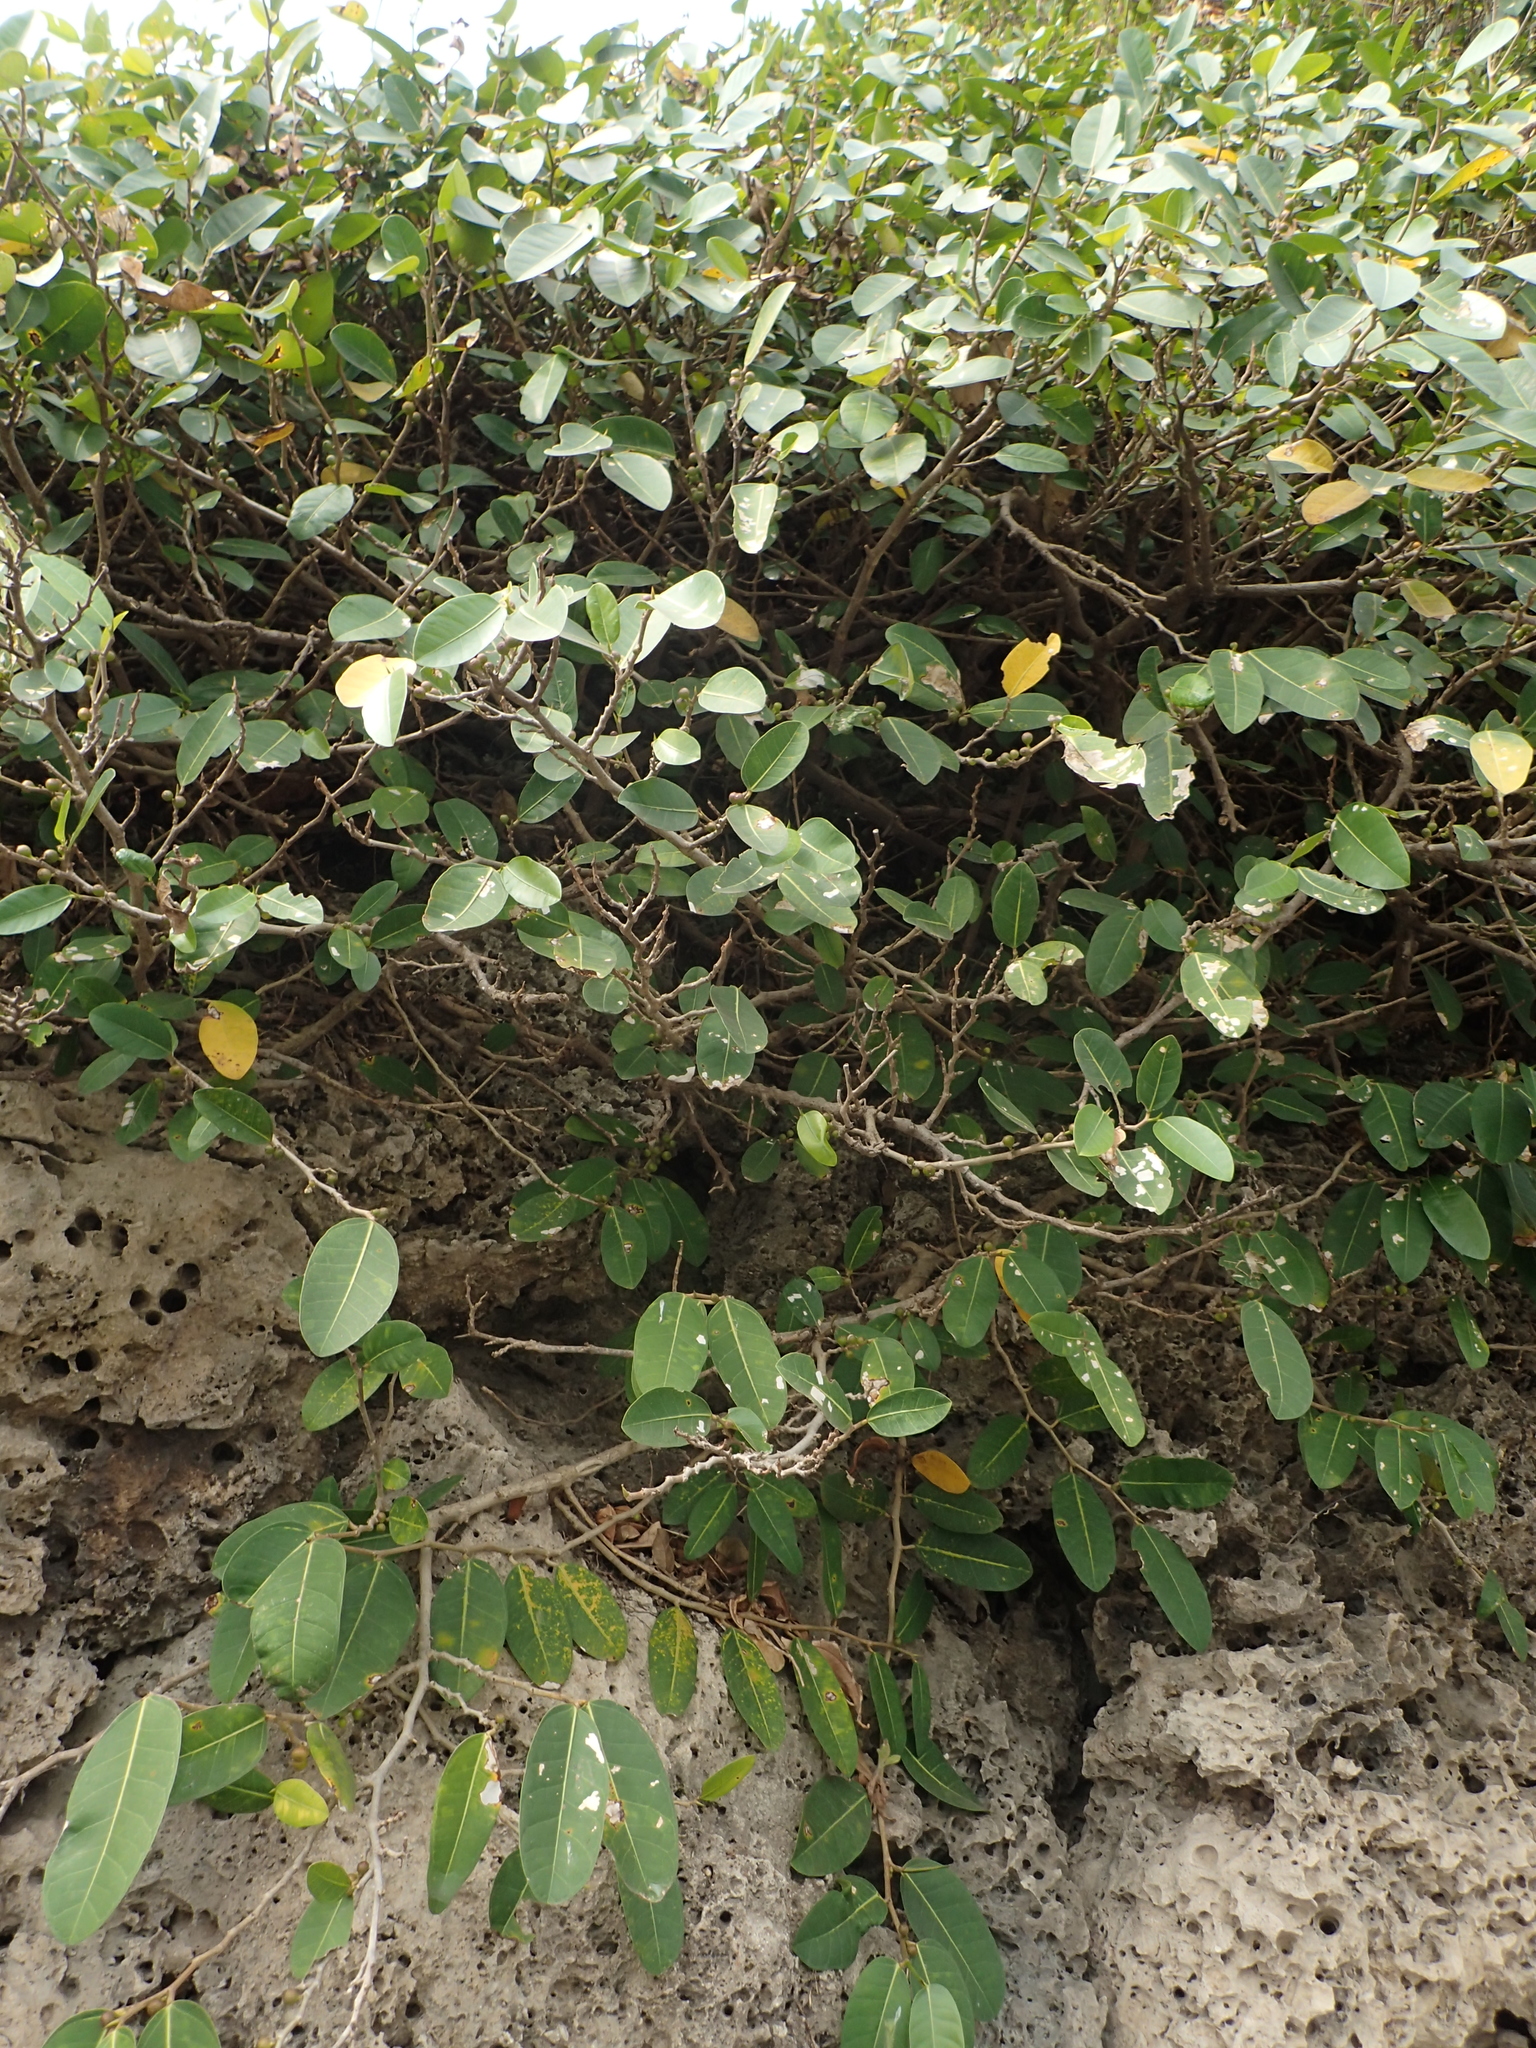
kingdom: Plantae
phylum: Tracheophyta
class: Magnoliopsida
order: Rosales
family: Moraceae
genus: Ficus
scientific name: Ficus tinctoria
